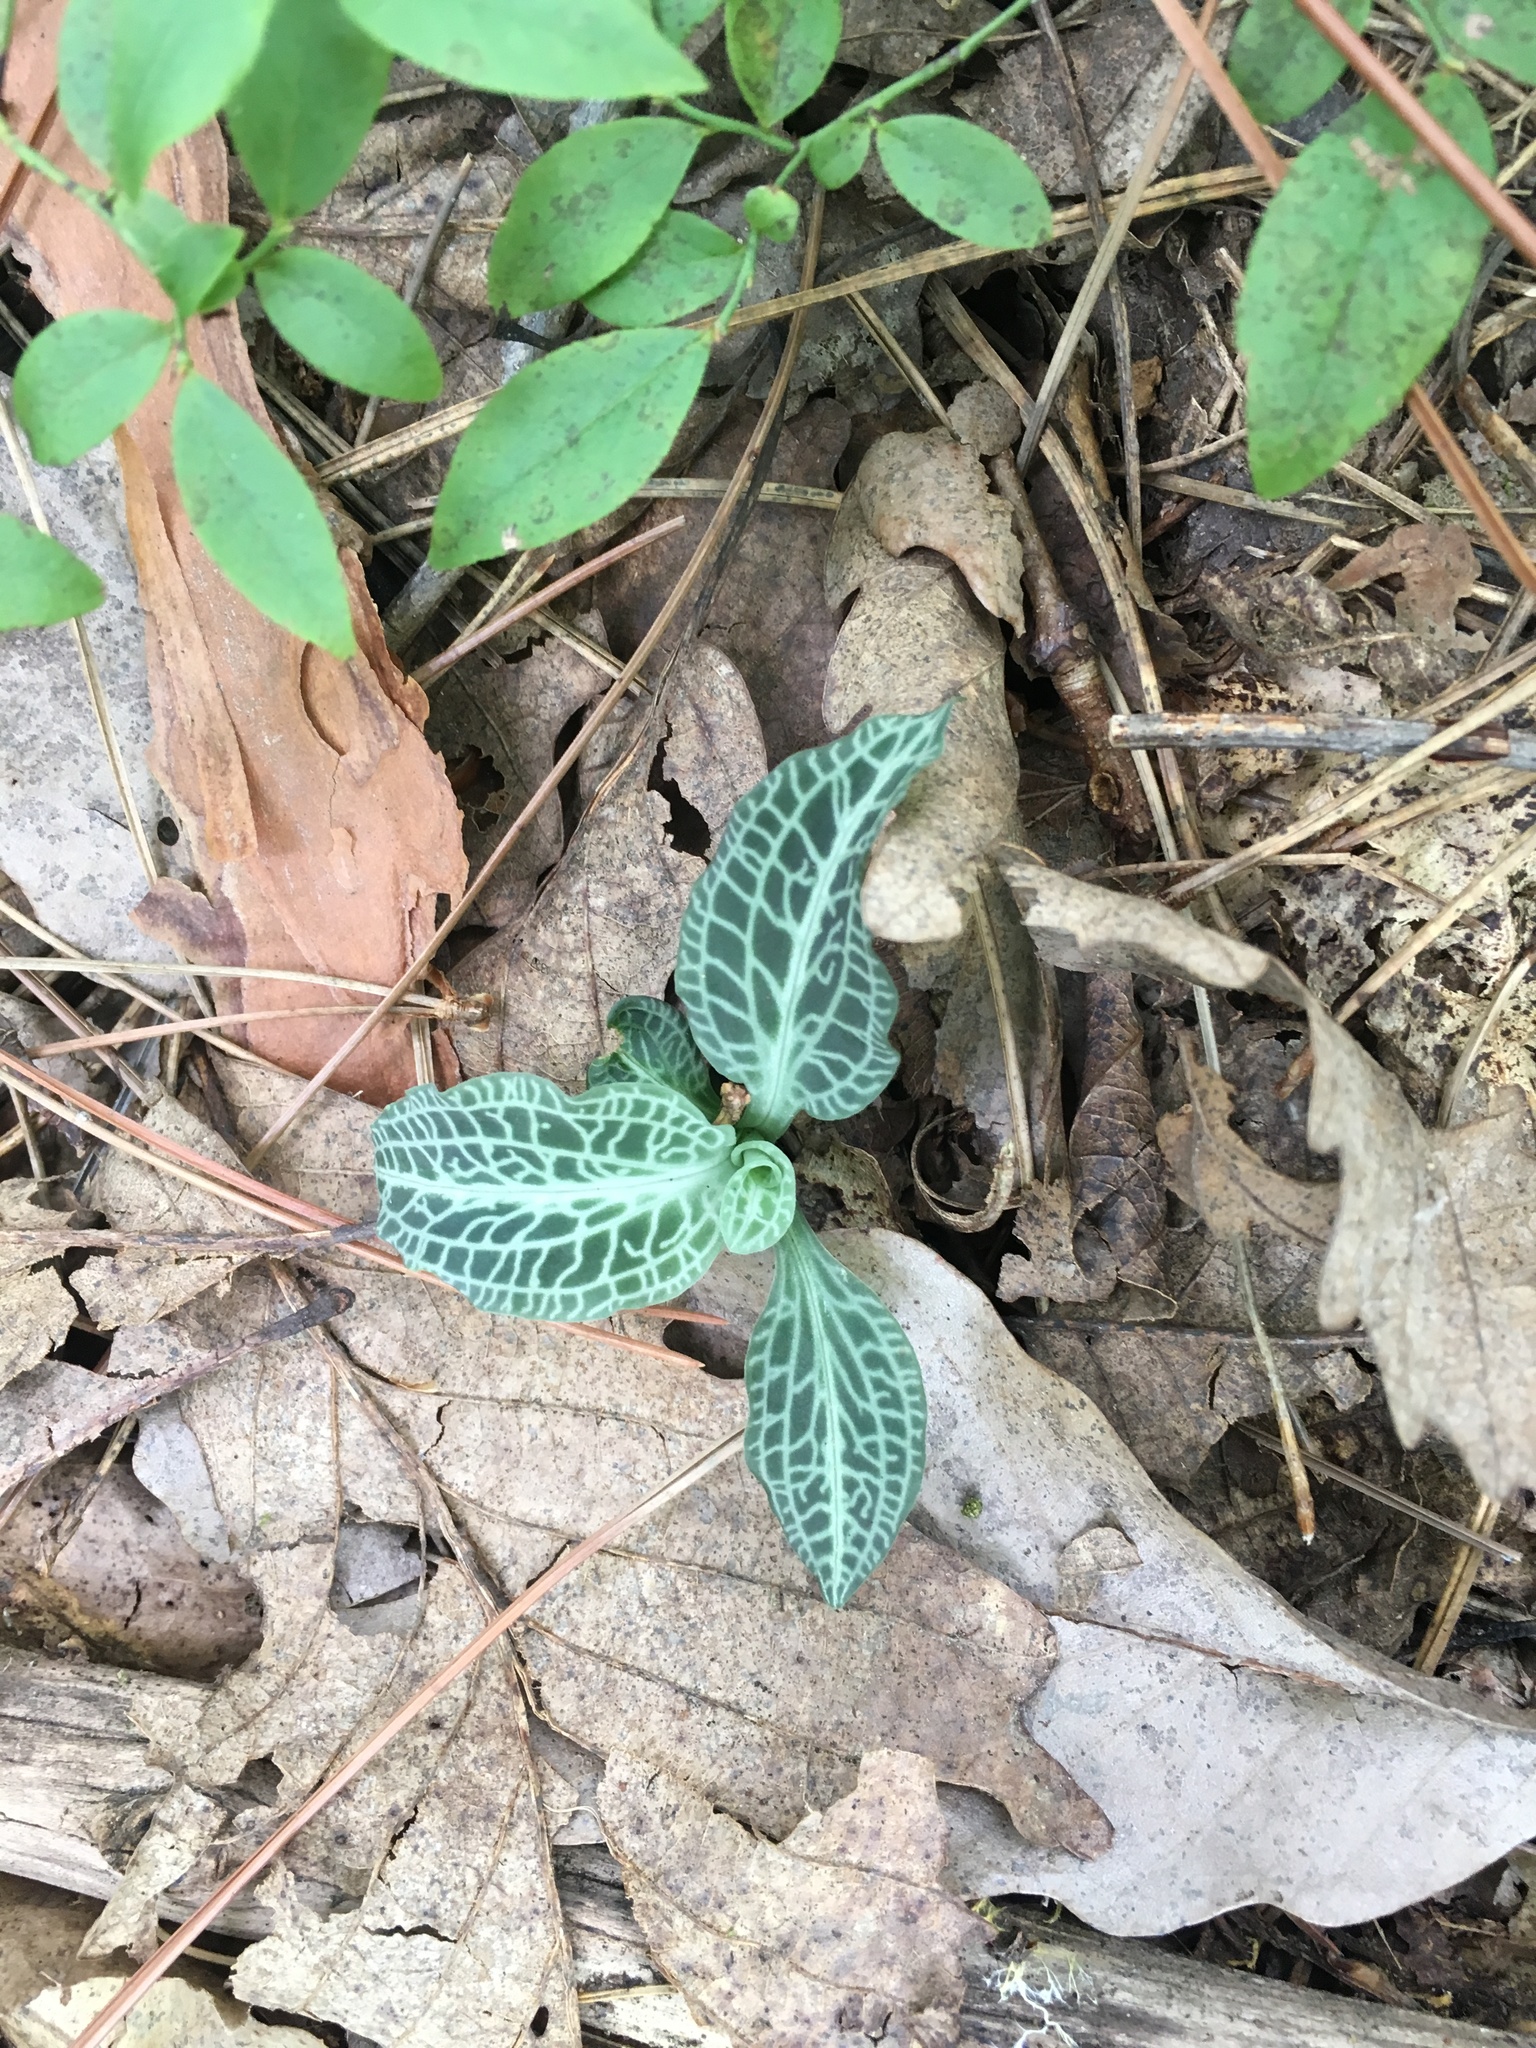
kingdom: Plantae
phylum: Tracheophyta
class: Liliopsida
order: Asparagales
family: Orchidaceae
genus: Goodyera
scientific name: Goodyera pubescens
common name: Downy rattlesnake-plantain
